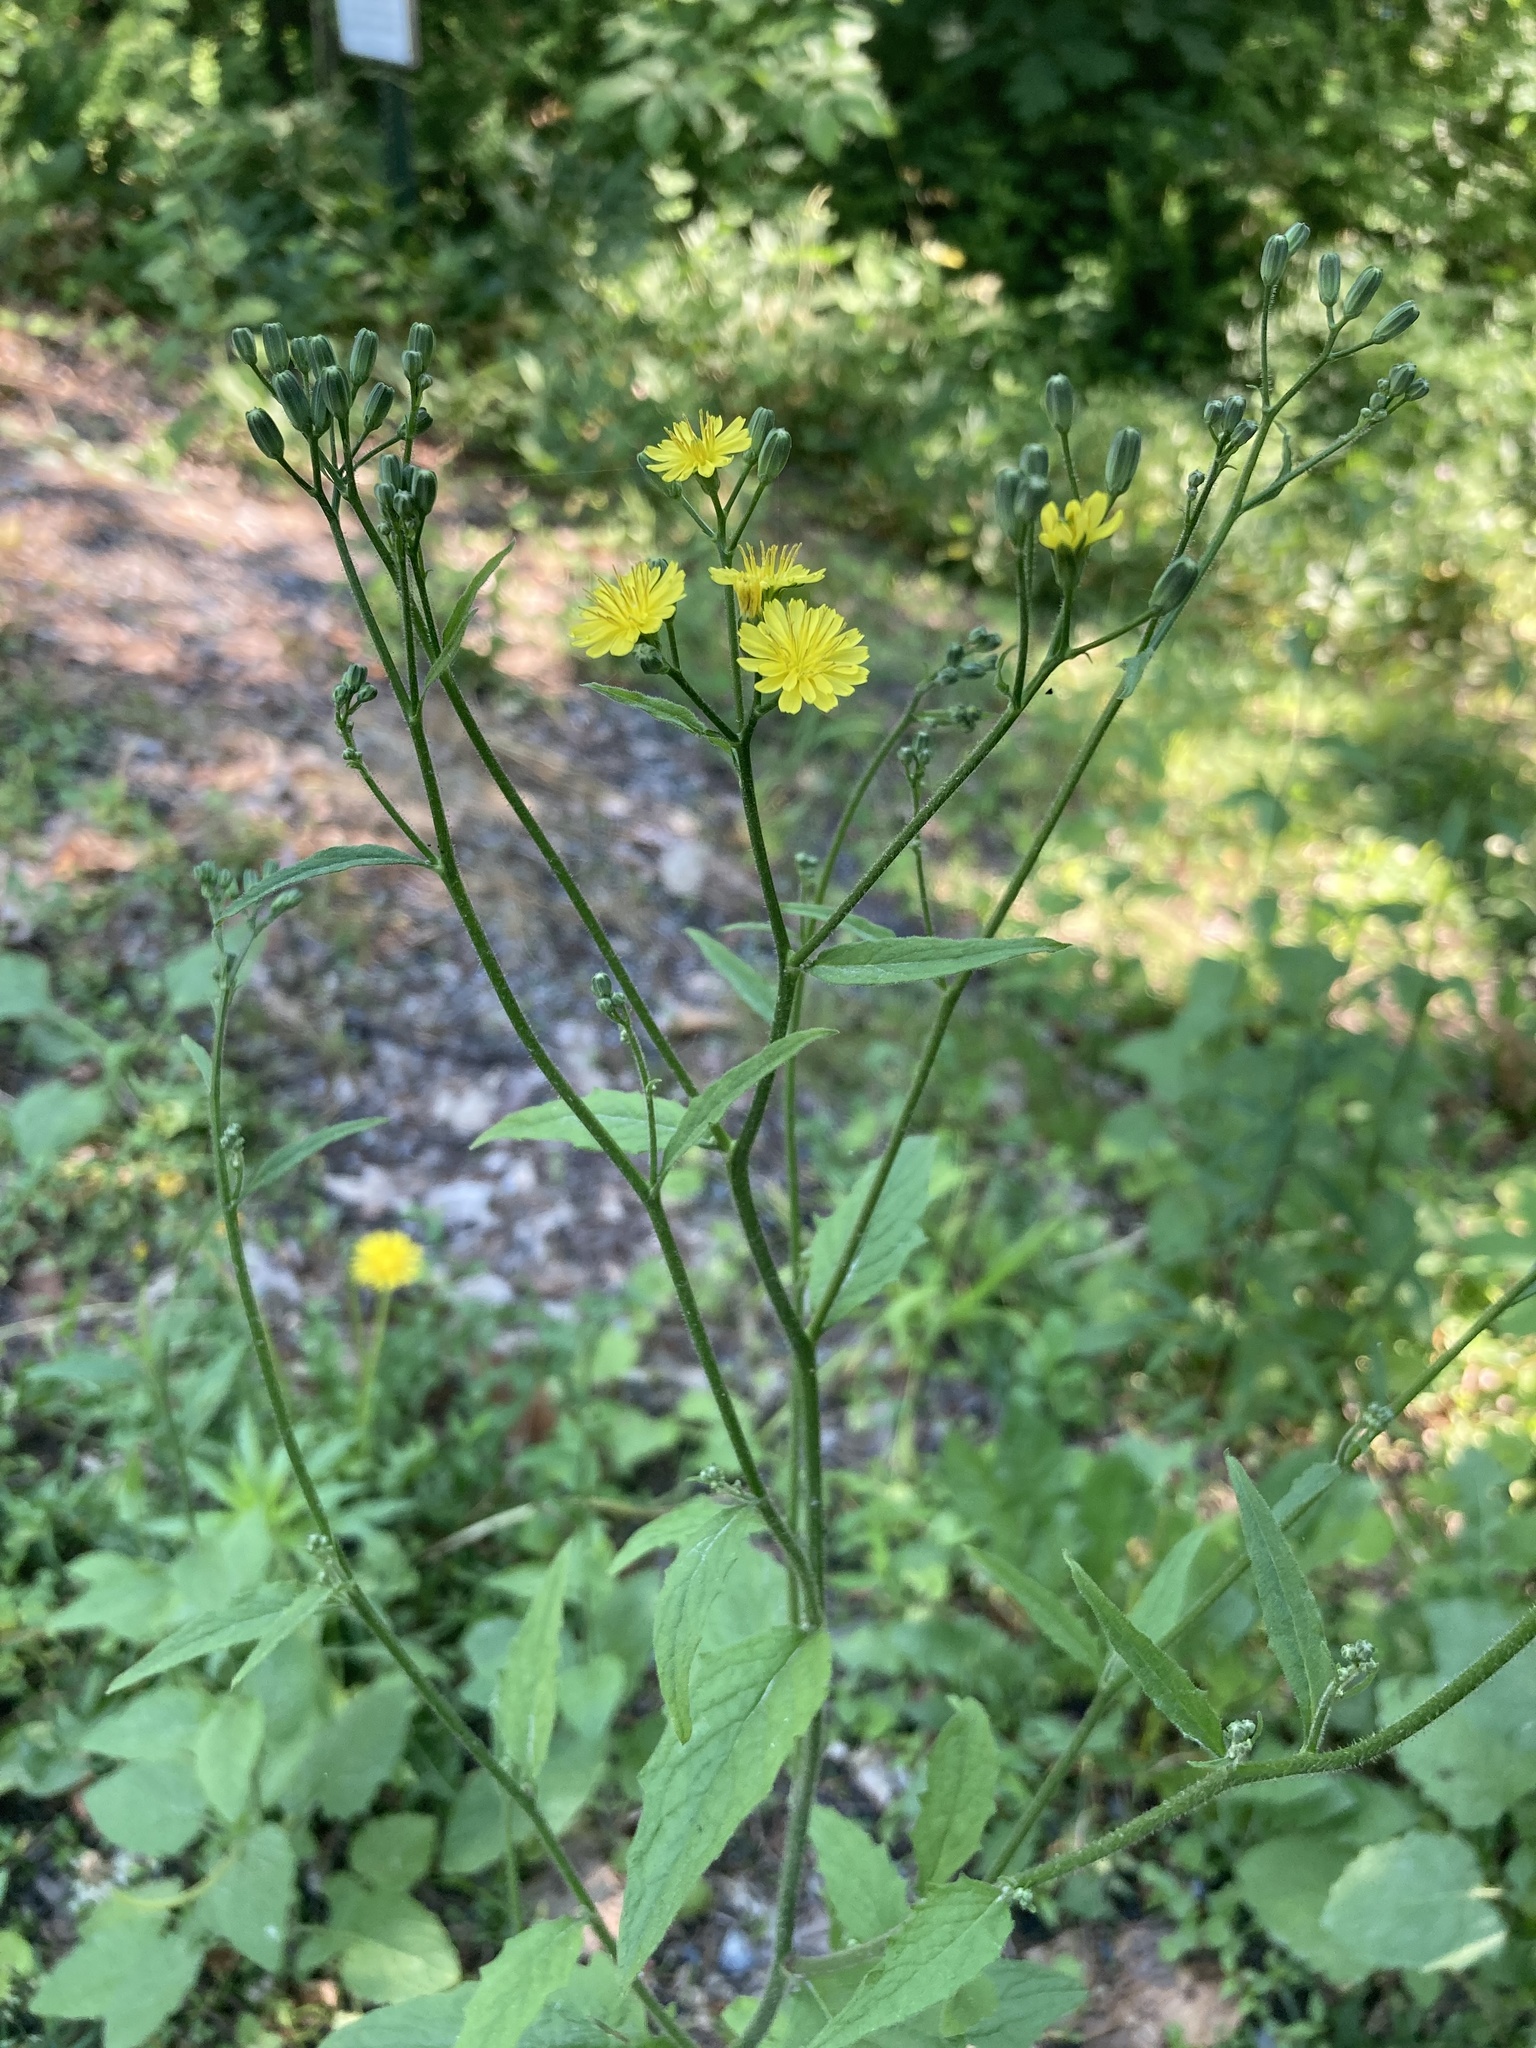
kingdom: Plantae
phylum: Tracheophyta
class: Magnoliopsida
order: Asterales
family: Asteraceae
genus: Lapsana
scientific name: Lapsana communis
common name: Nipplewort
